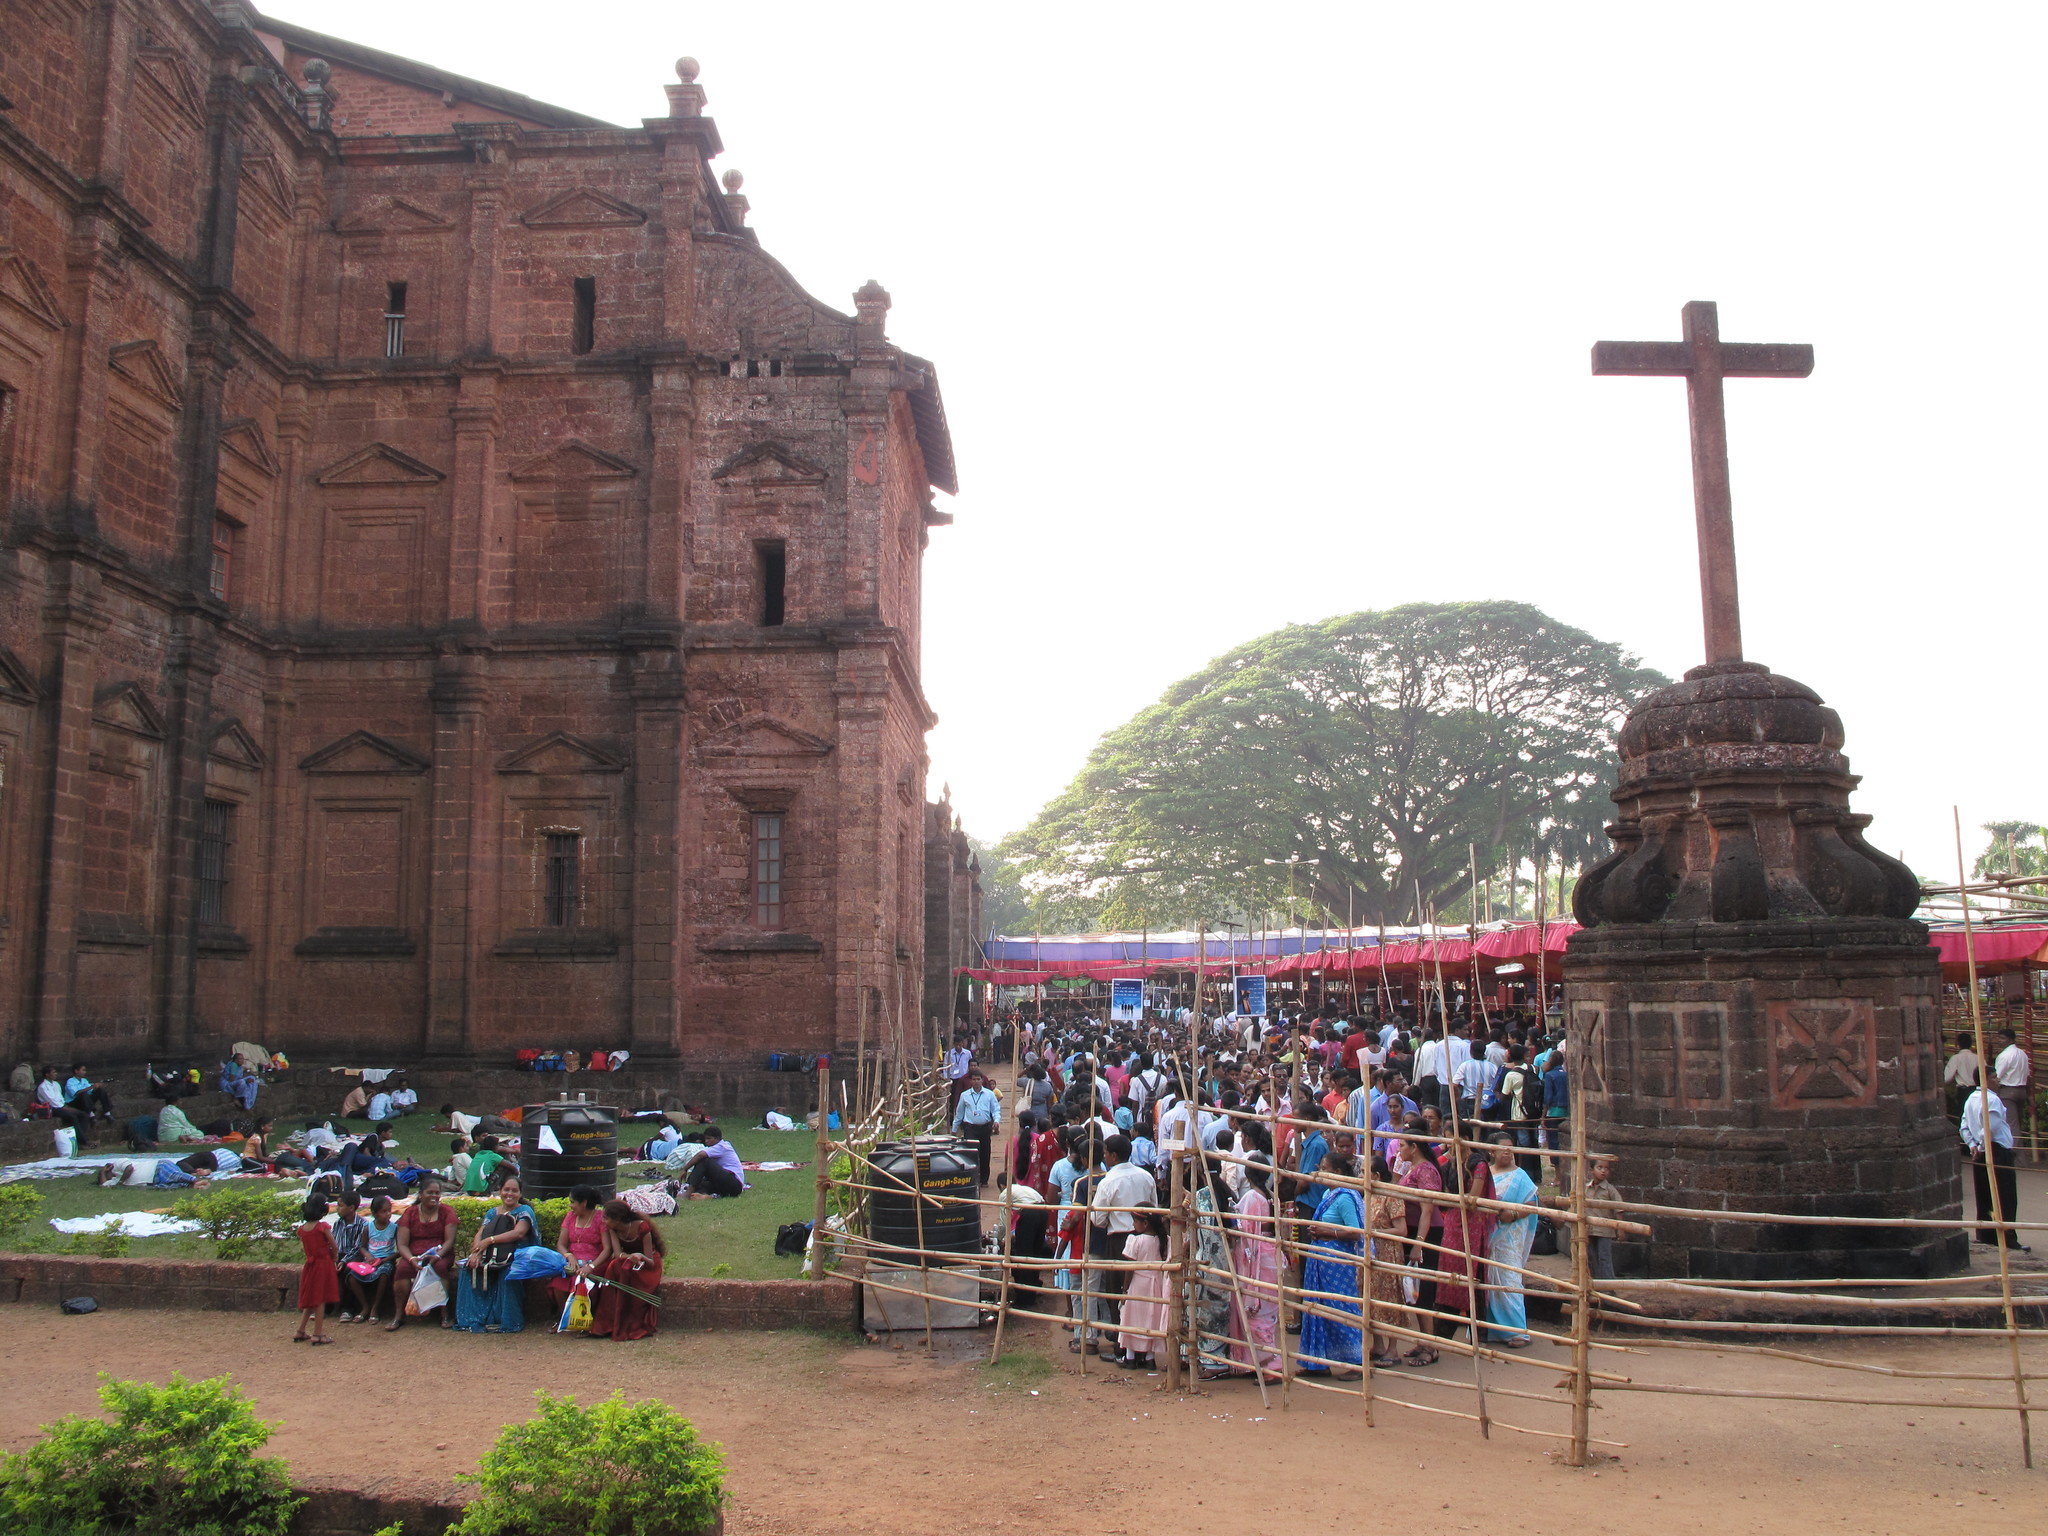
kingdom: Plantae
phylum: Tracheophyta
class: Magnoliopsida
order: Fabales
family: Fabaceae
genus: Samanea
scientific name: Samanea saman
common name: Raintree
